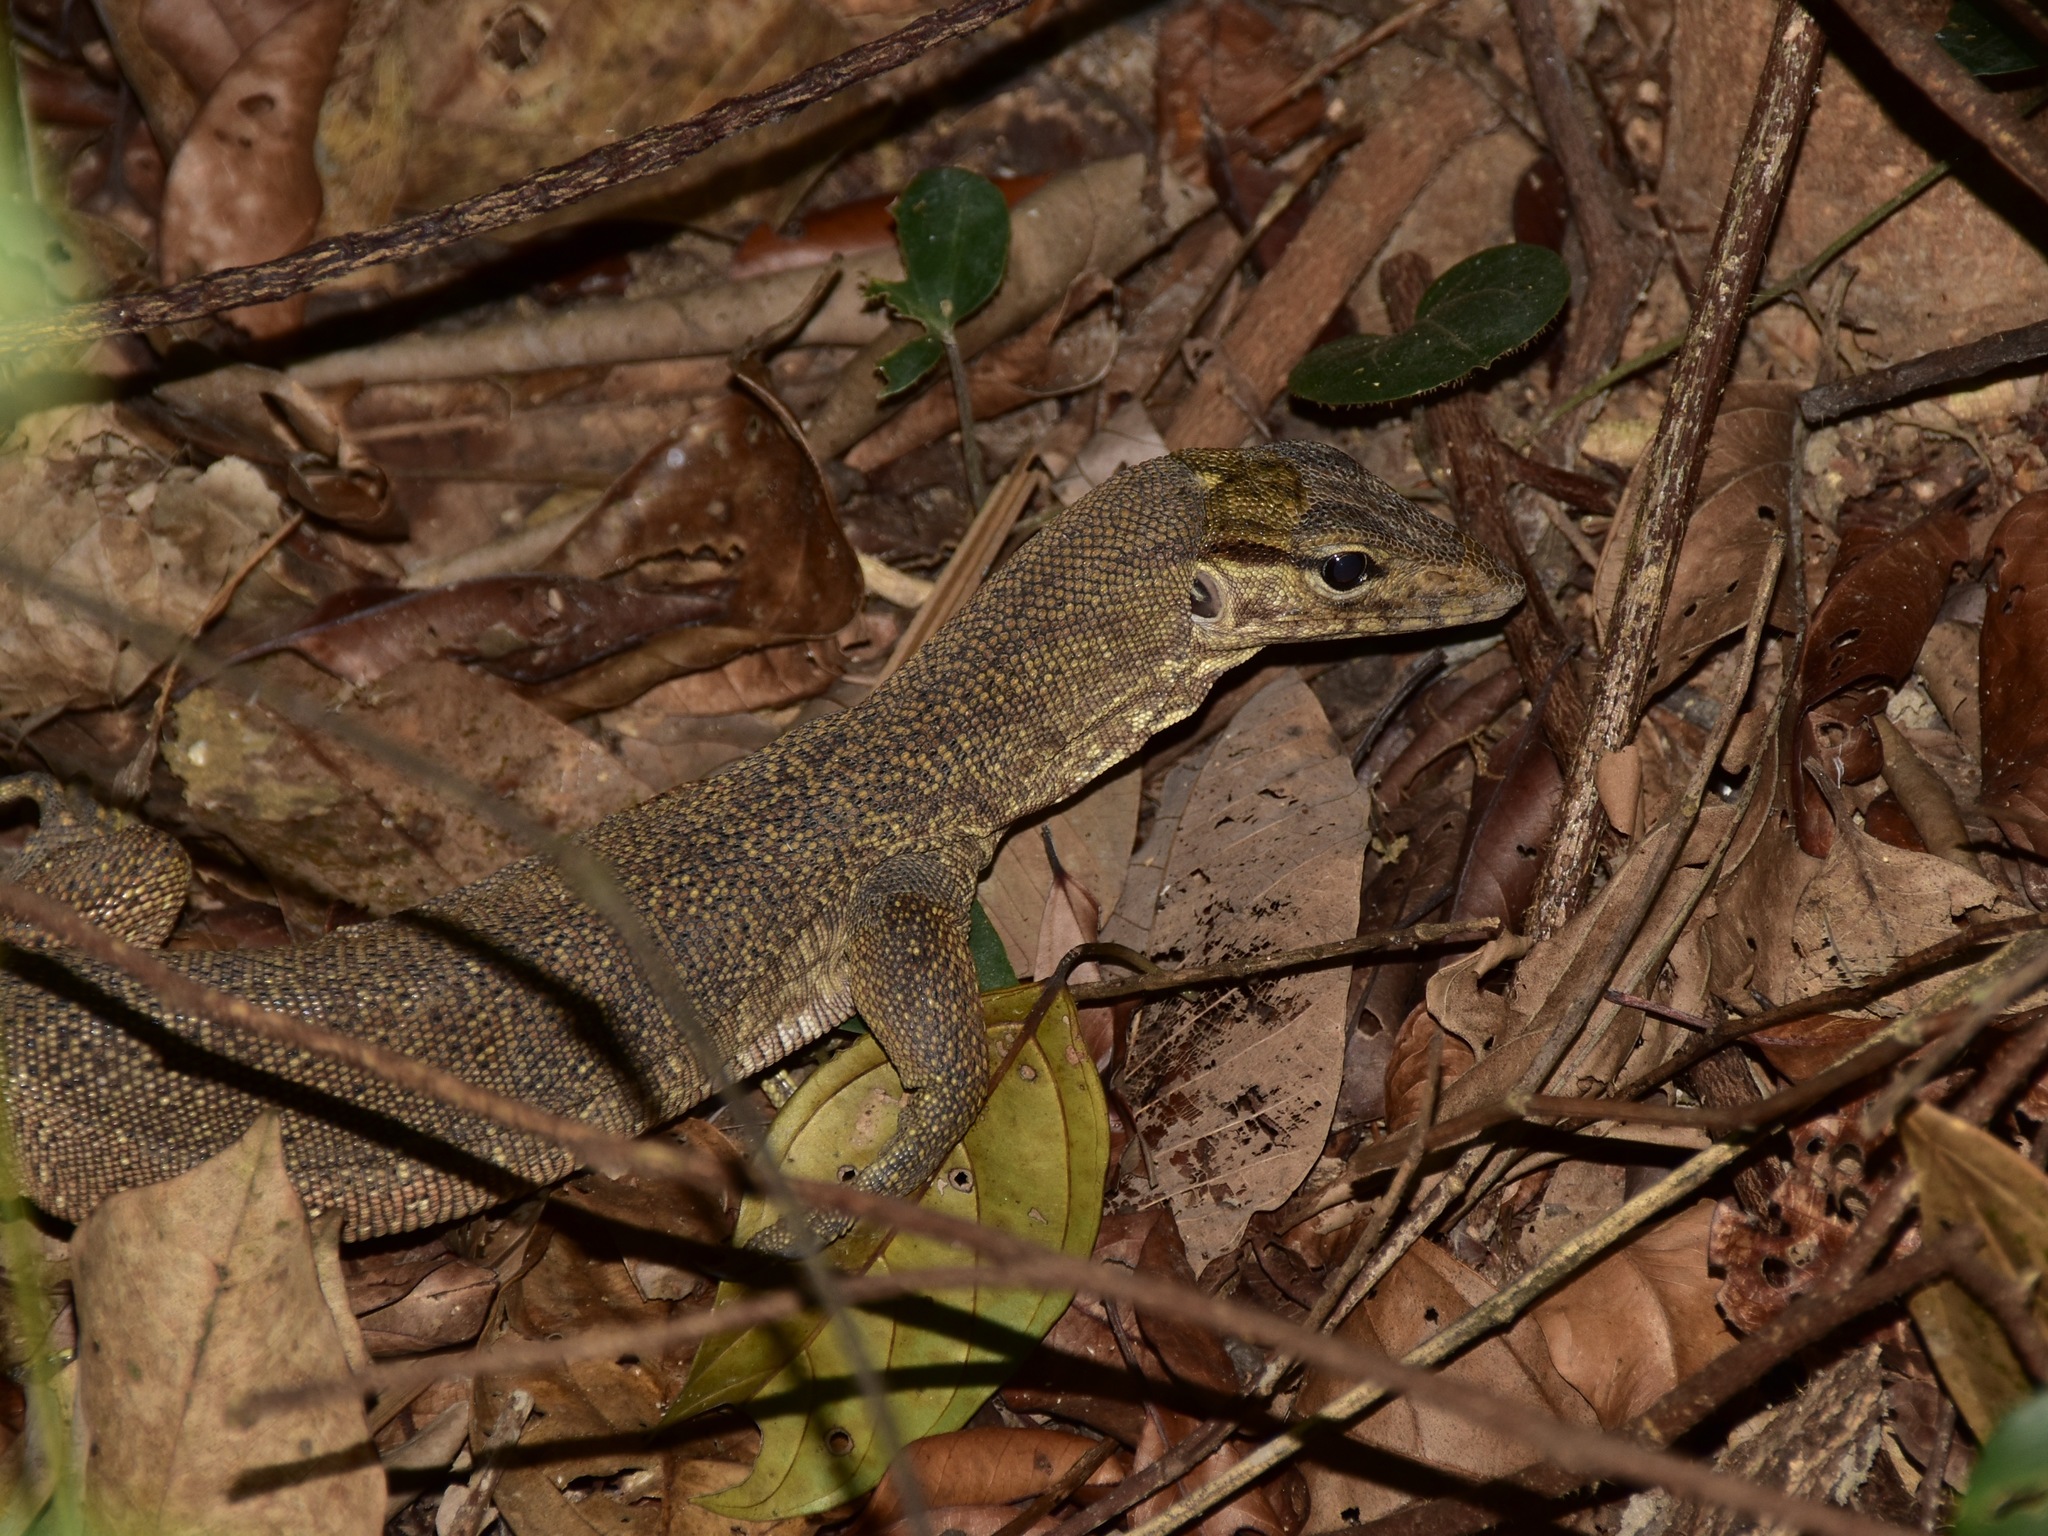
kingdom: Animalia
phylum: Chordata
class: Squamata
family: Varanidae
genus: Varanus
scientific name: Varanus nebulosus
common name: Clouded monitor
